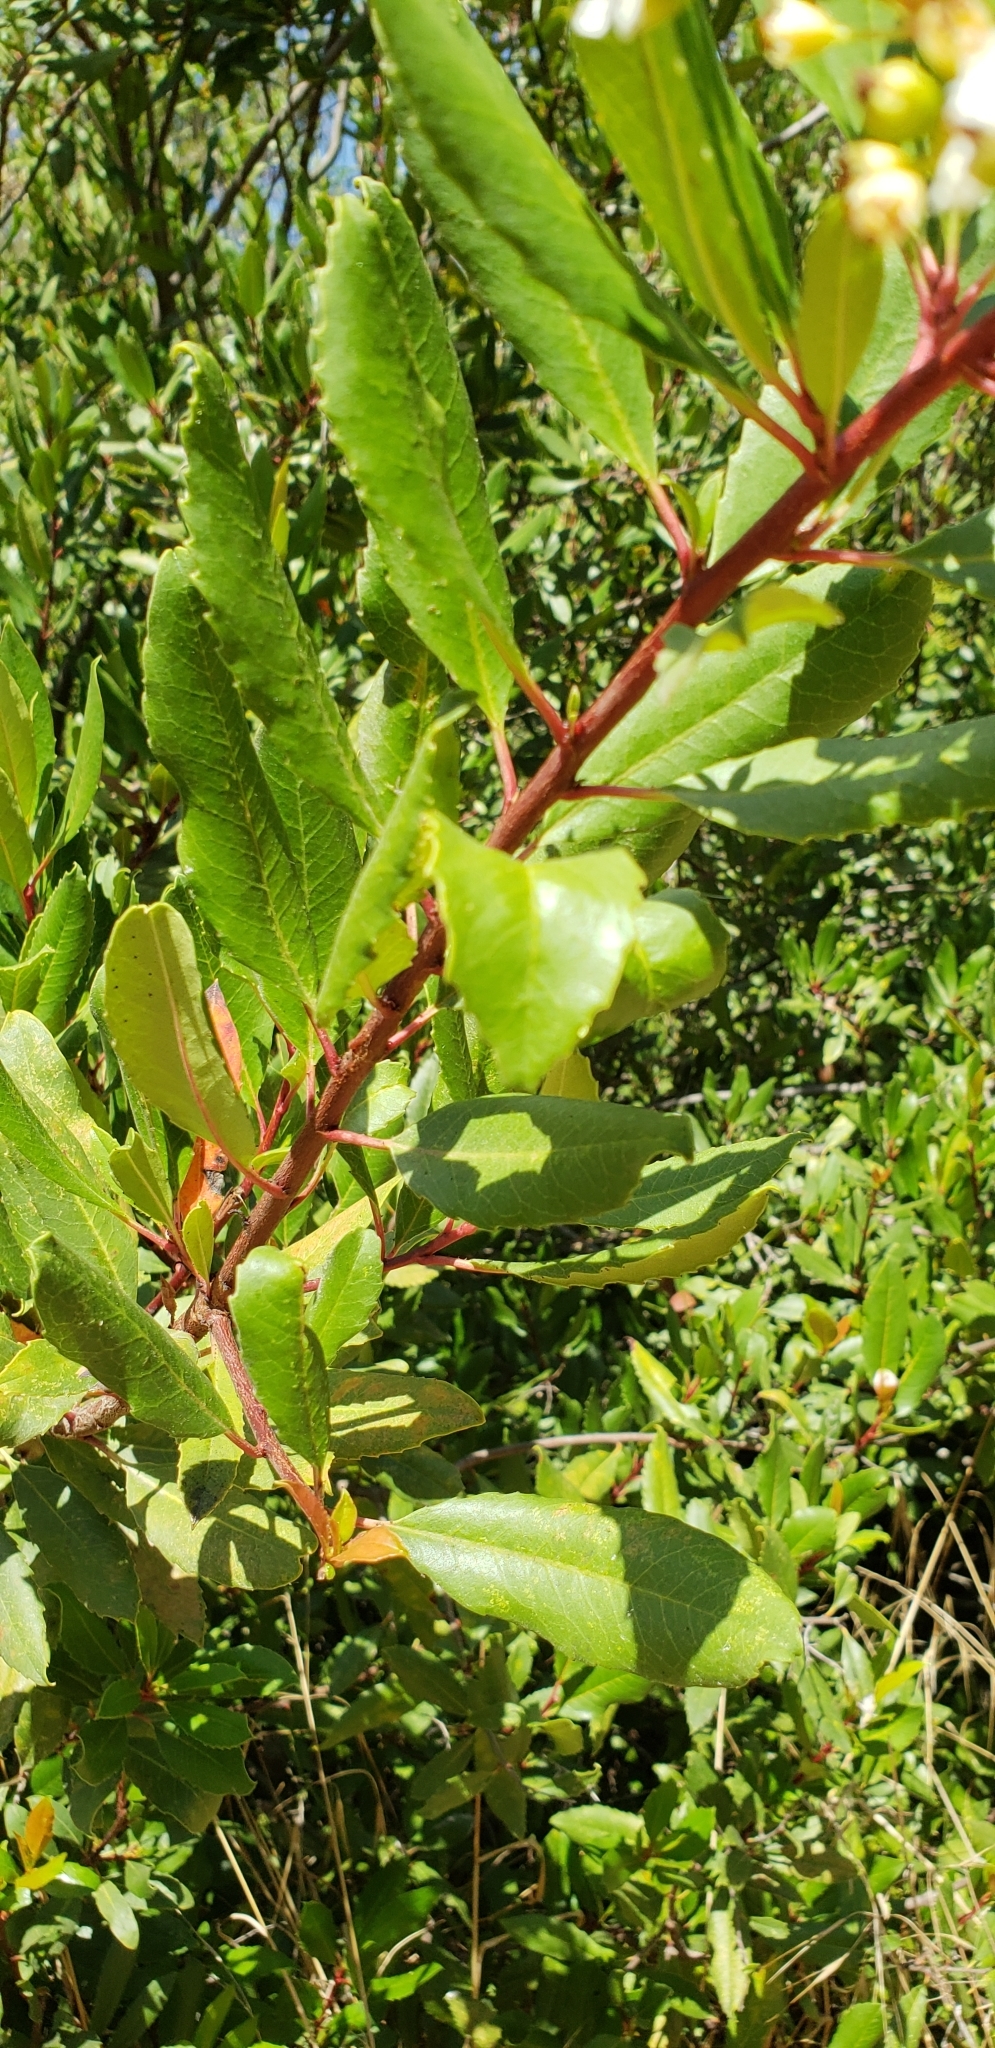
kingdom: Plantae
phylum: Tracheophyta
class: Magnoliopsida
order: Rosales
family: Rosaceae
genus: Heteromeles
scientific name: Heteromeles arbutifolia
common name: California-holly
